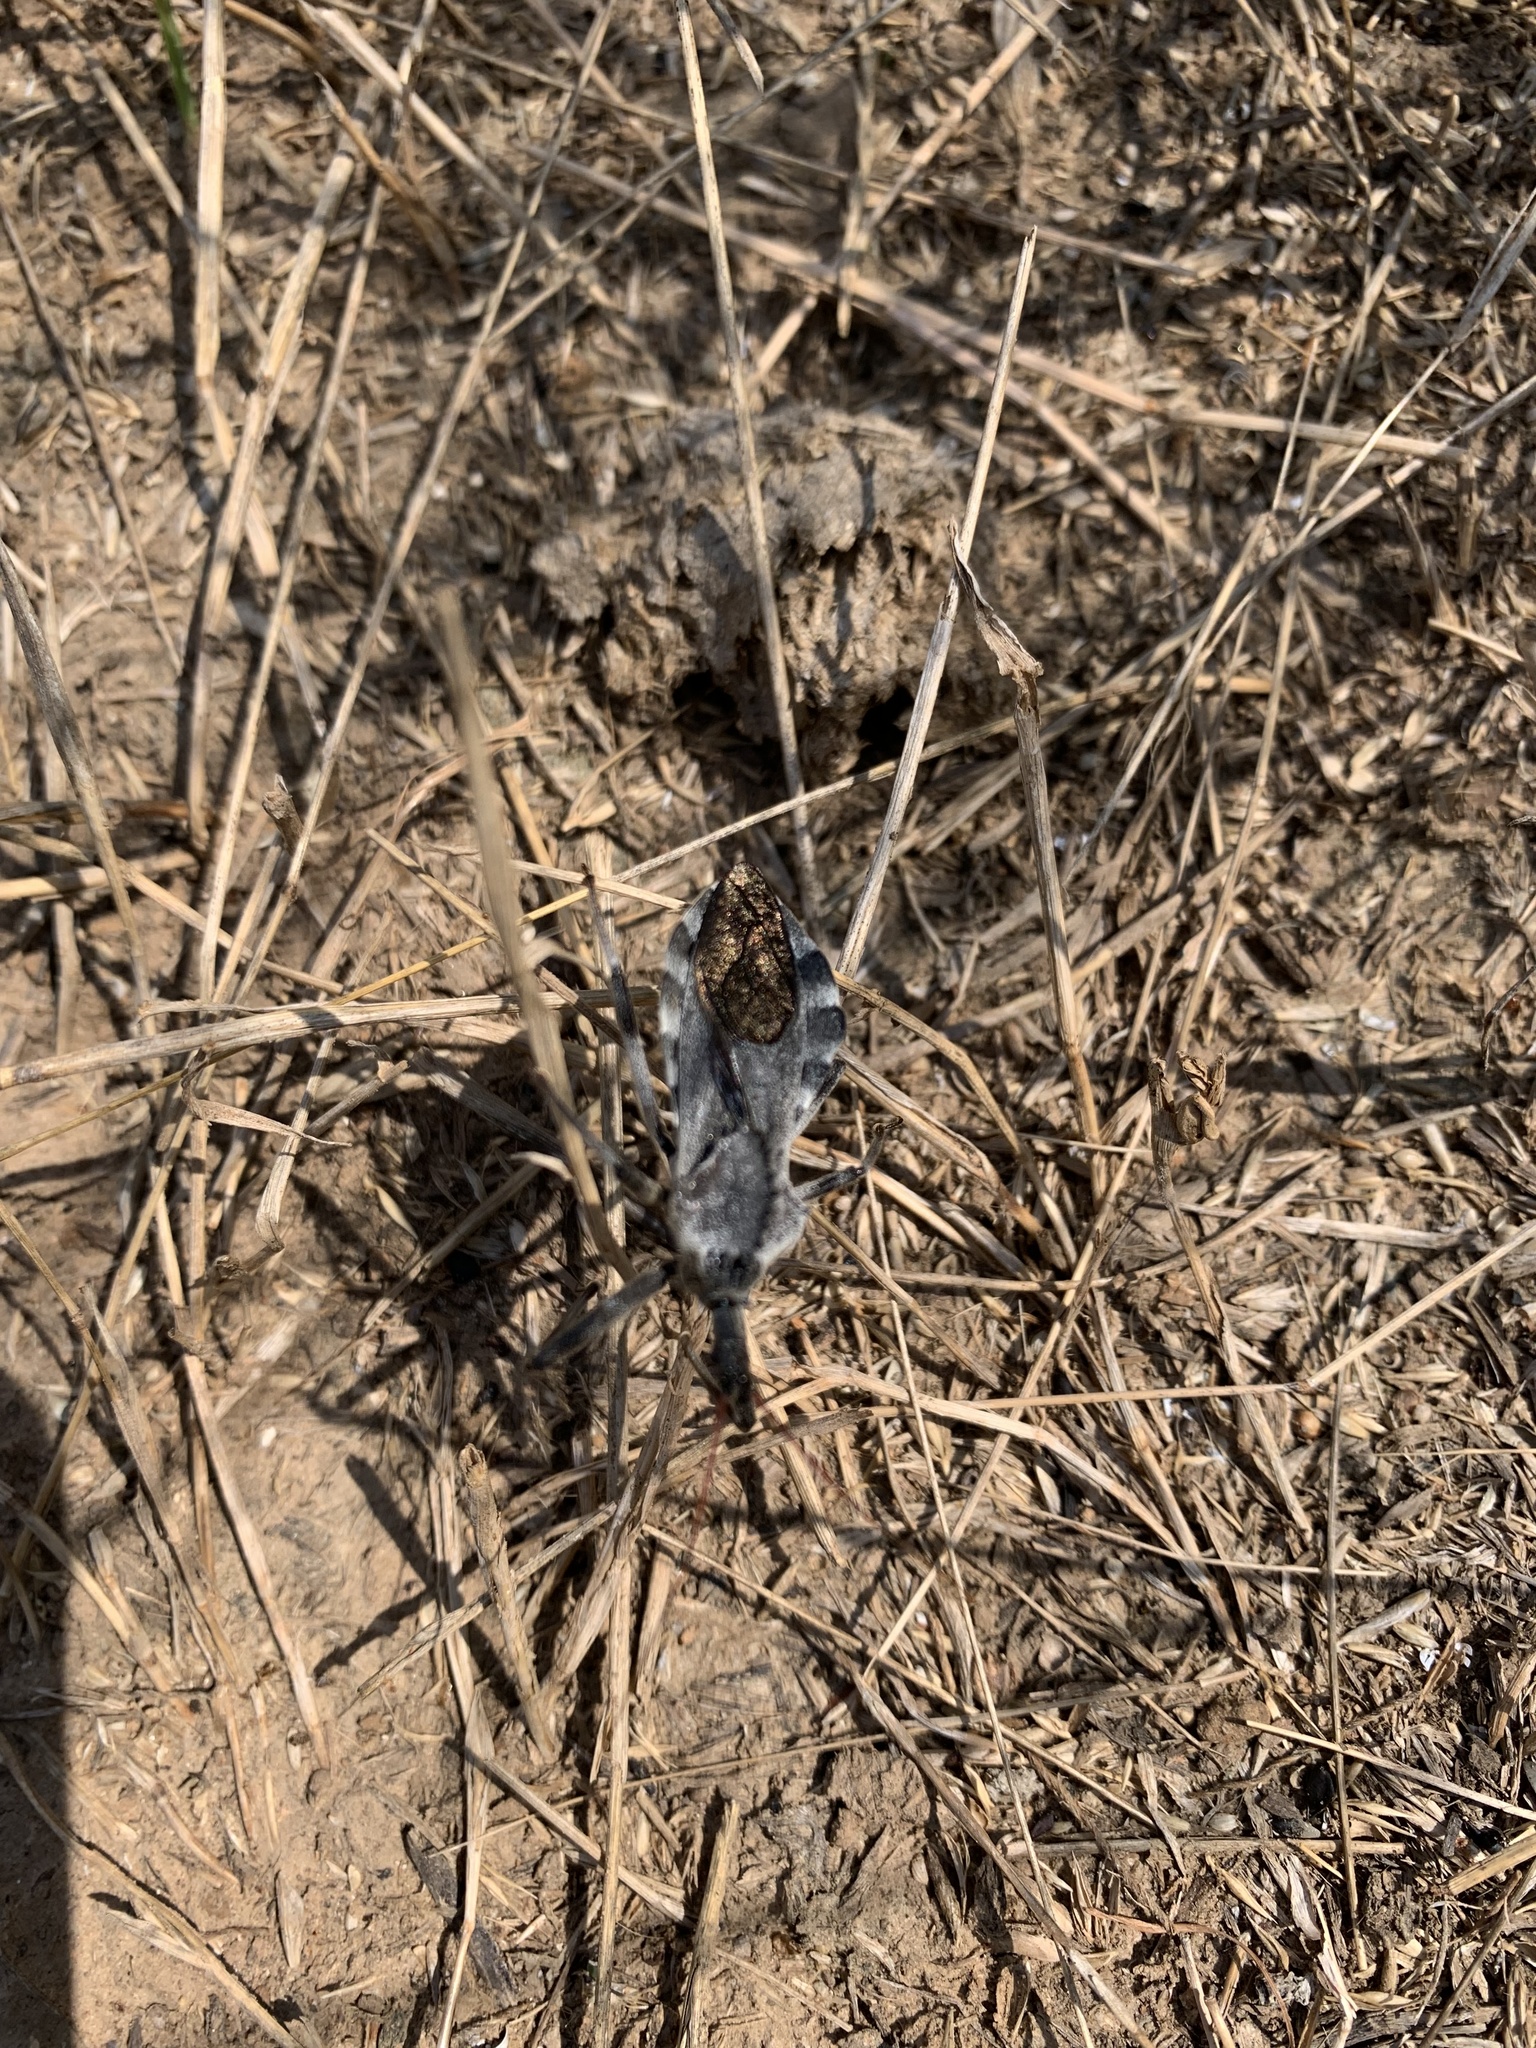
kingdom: Animalia
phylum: Arthropoda
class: Insecta
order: Hemiptera
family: Reduviidae
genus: Arilus
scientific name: Arilus cristatus
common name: North american wheel bug
